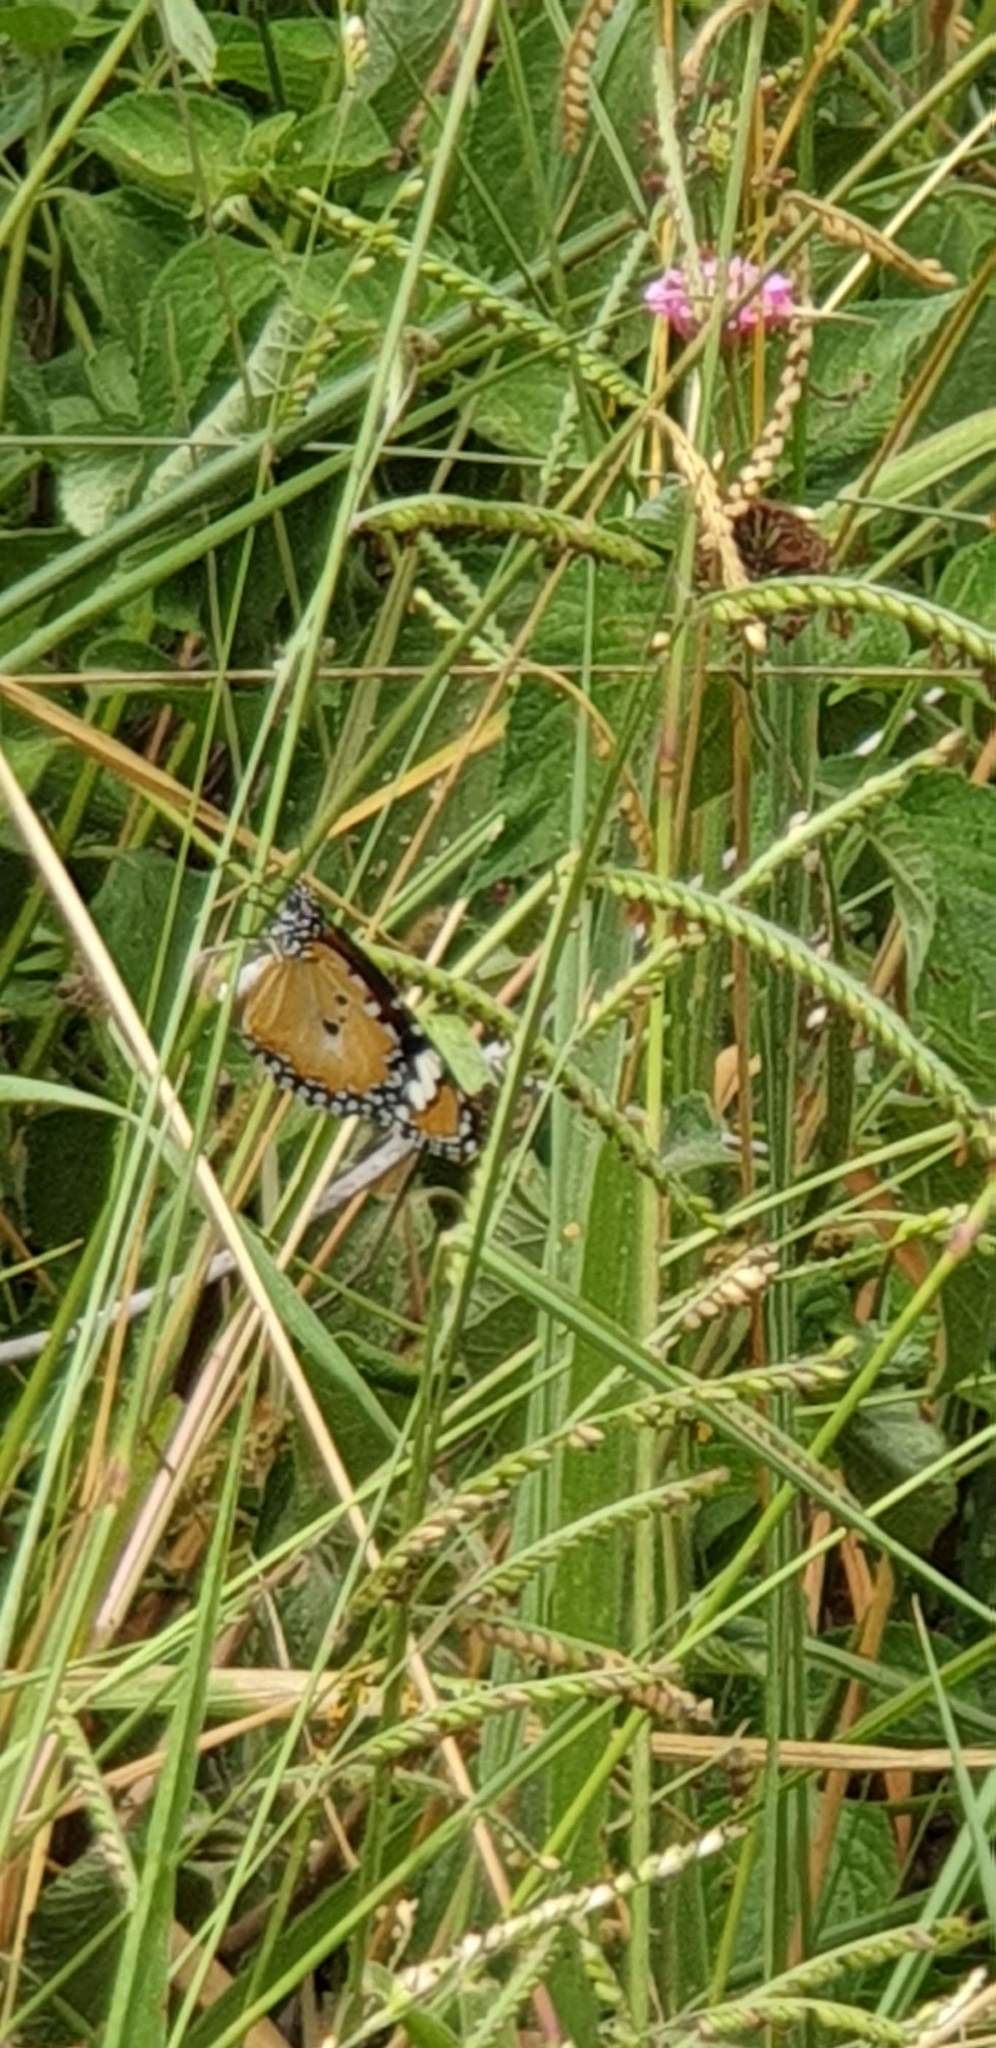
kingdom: Animalia
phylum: Arthropoda
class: Insecta
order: Lepidoptera
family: Nymphalidae
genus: Danaus
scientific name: Danaus chrysippus
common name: Plain tiger
